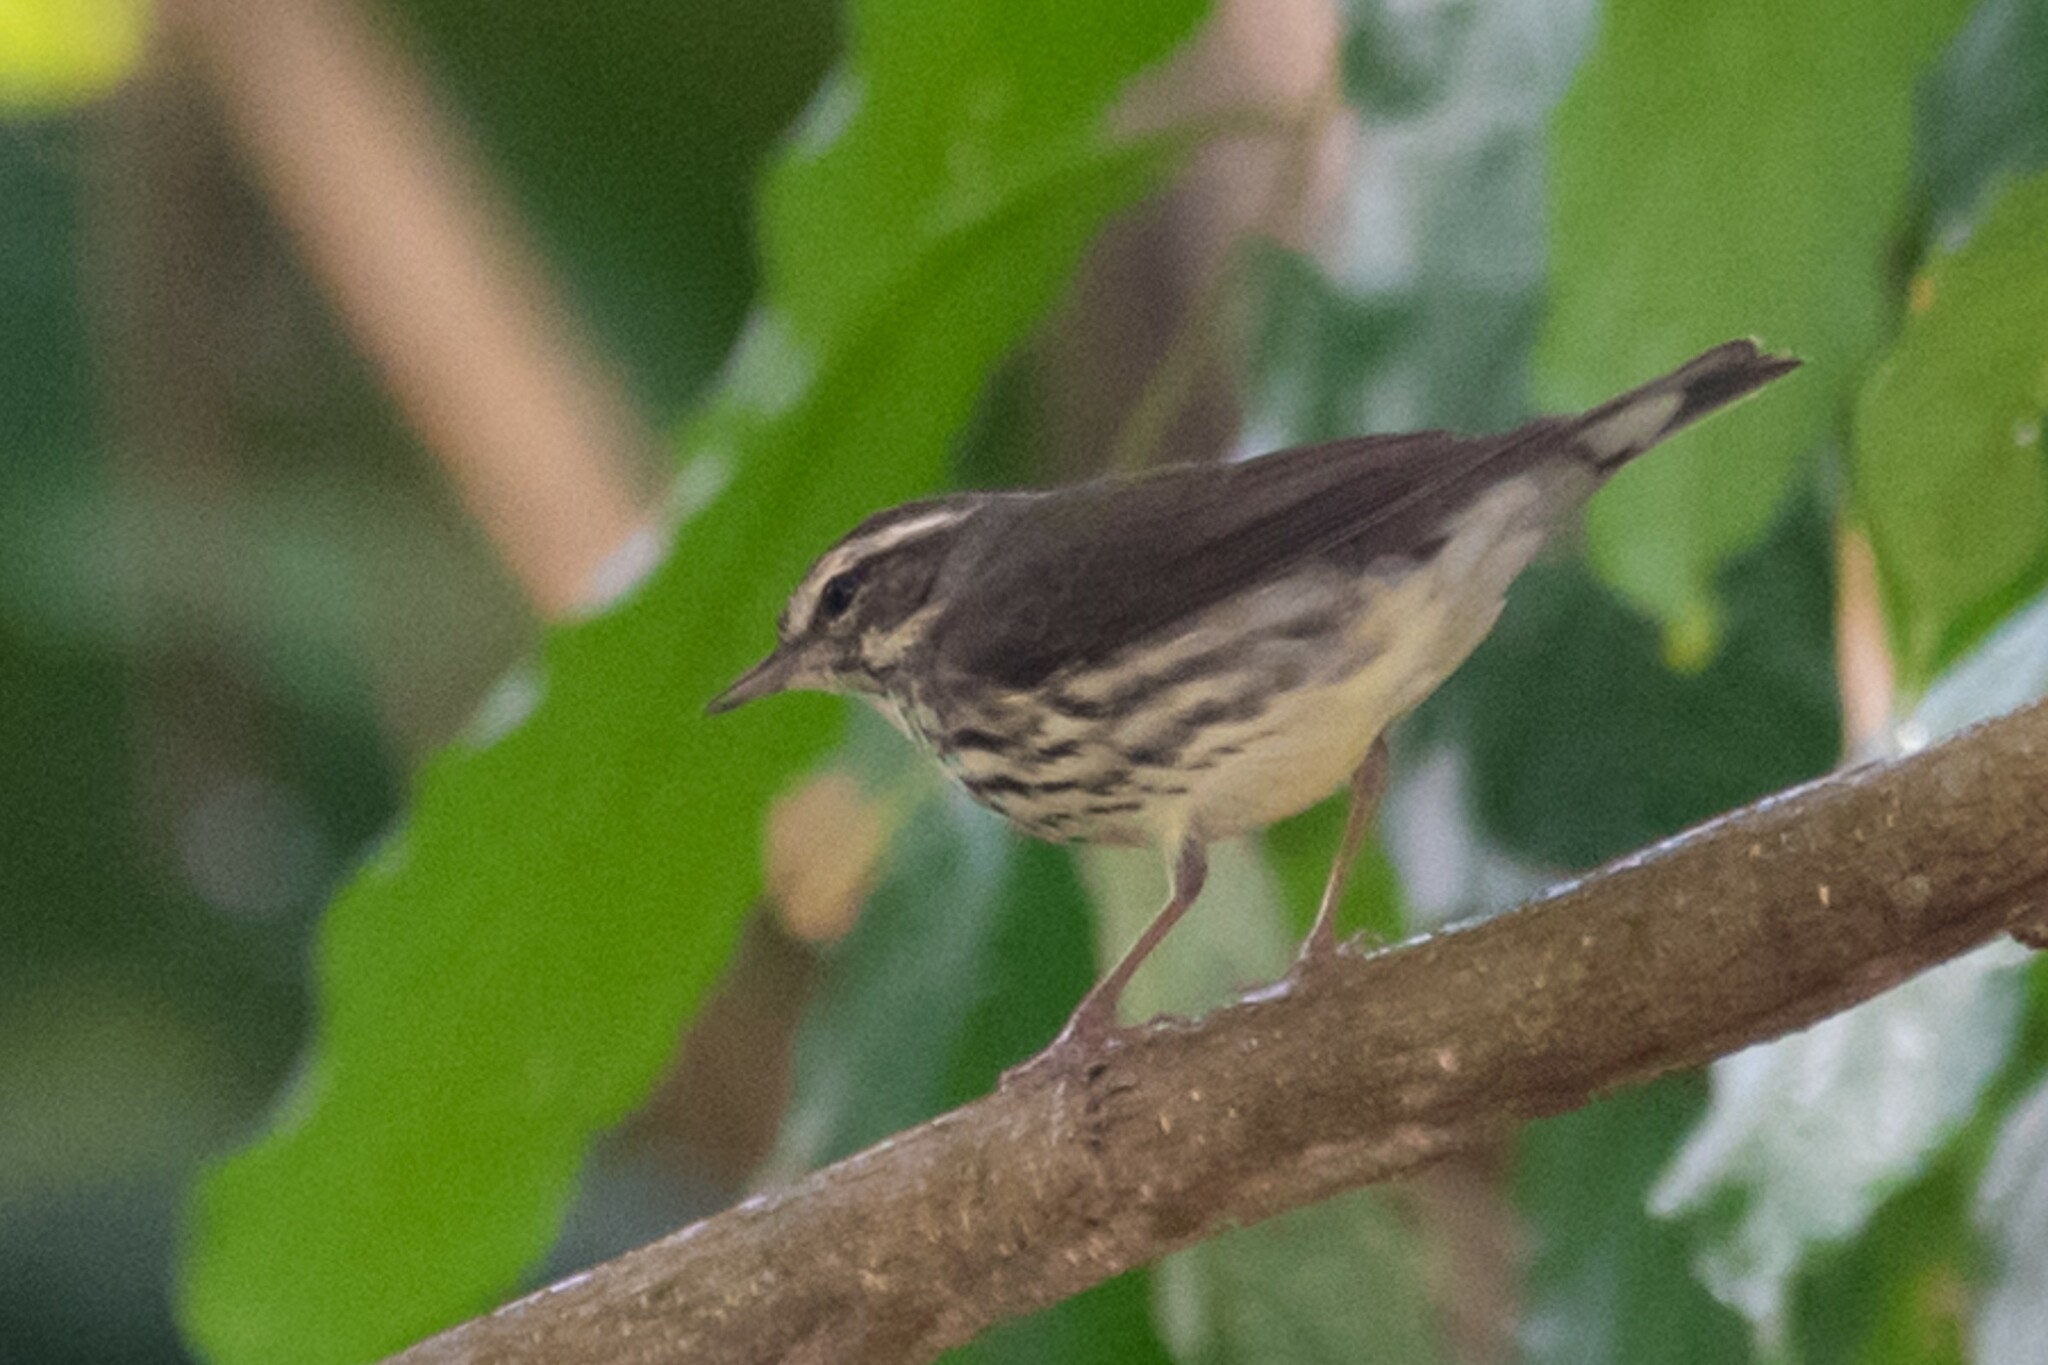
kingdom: Animalia
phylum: Chordata
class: Aves
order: Passeriformes
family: Parulidae
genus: Parkesia
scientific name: Parkesia noveboracensis
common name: Northern waterthrush
